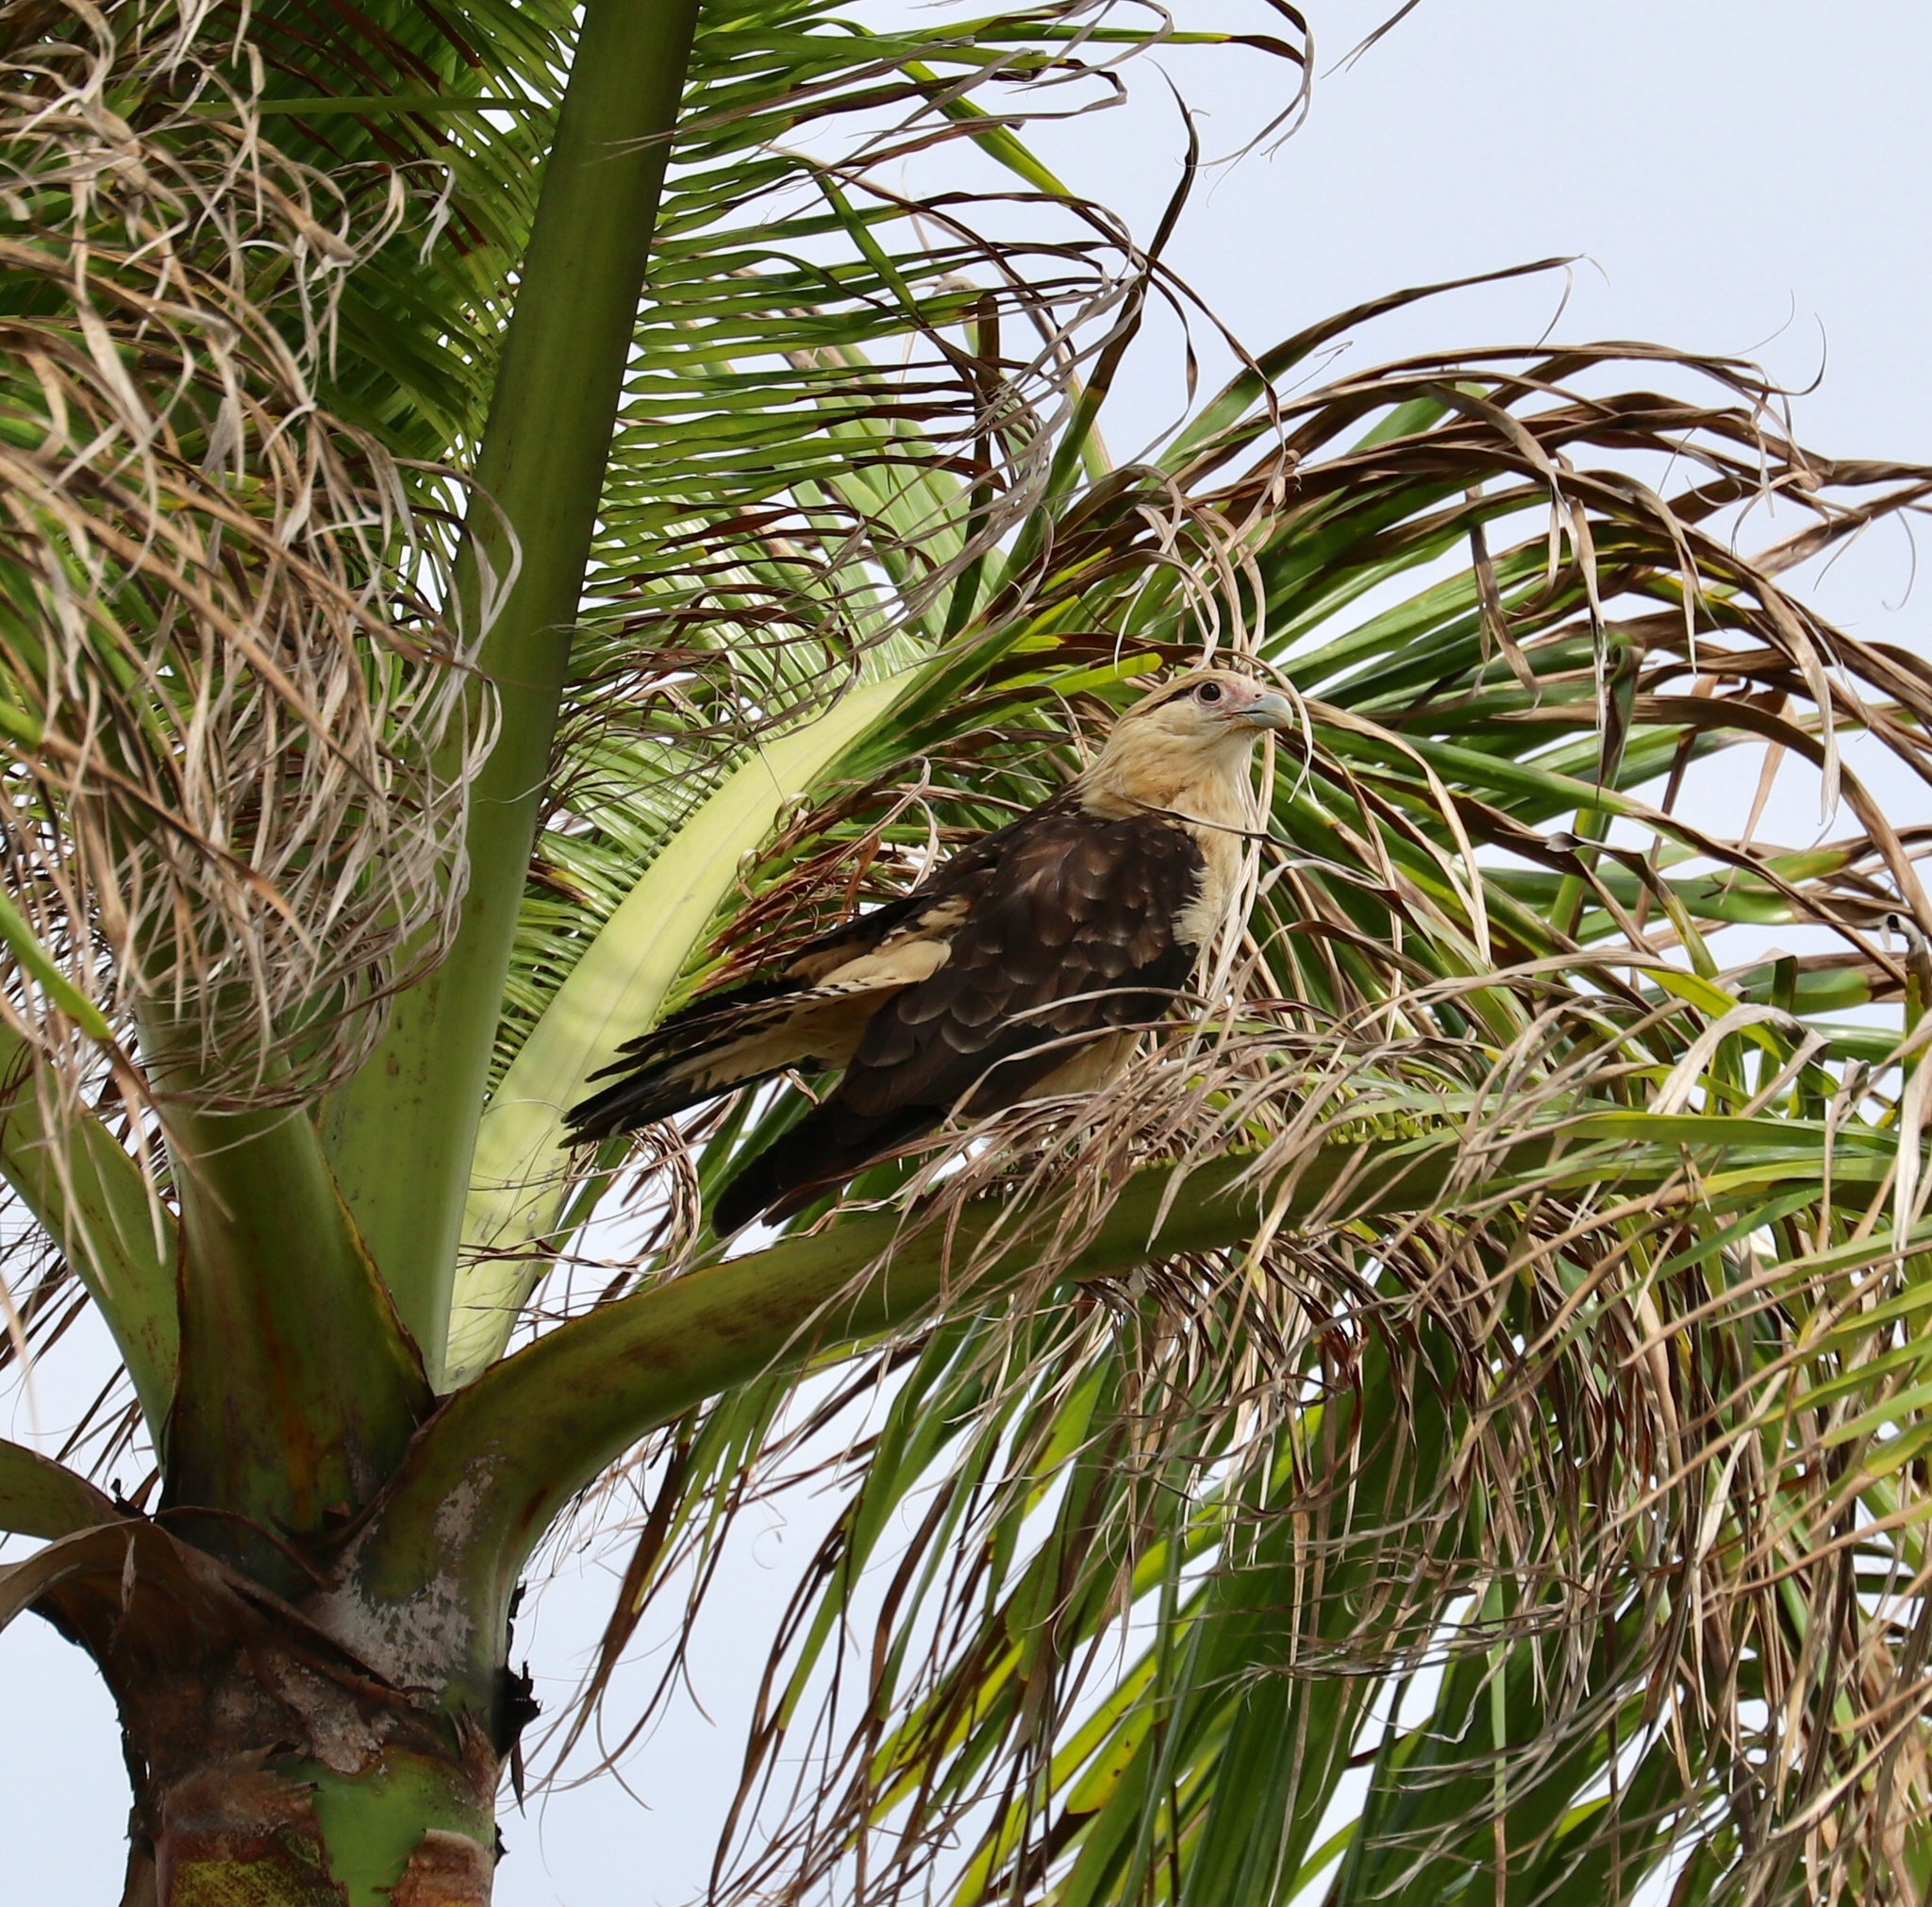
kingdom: Animalia
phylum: Chordata
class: Aves
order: Falconiformes
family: Falconidae
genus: Daptrius
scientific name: Daptrius
